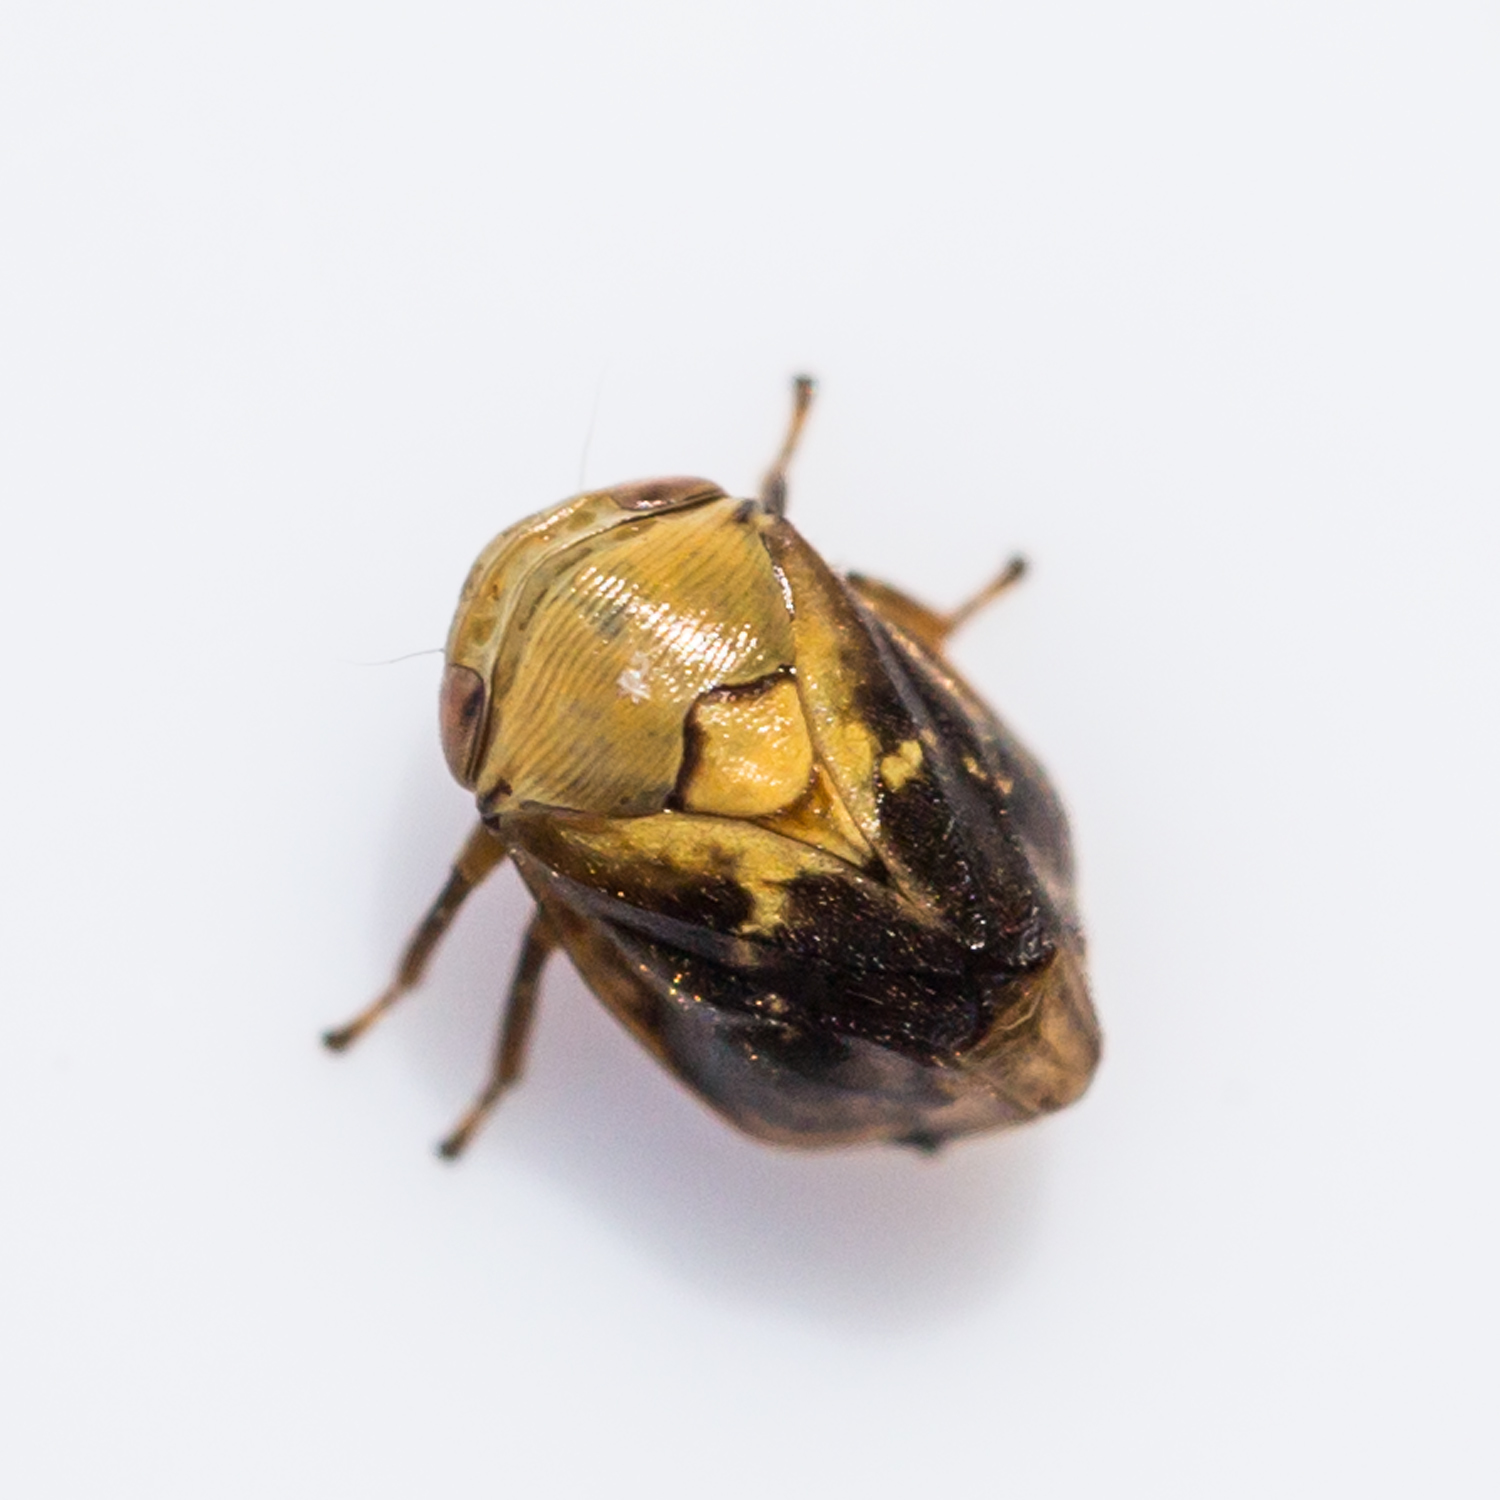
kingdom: Animalia
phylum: Arthropoda
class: Insecta
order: Hemiptera
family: Clastopteridae
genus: Clastoptera
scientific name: Clastoptera achatina
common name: Pecan spittlebug
